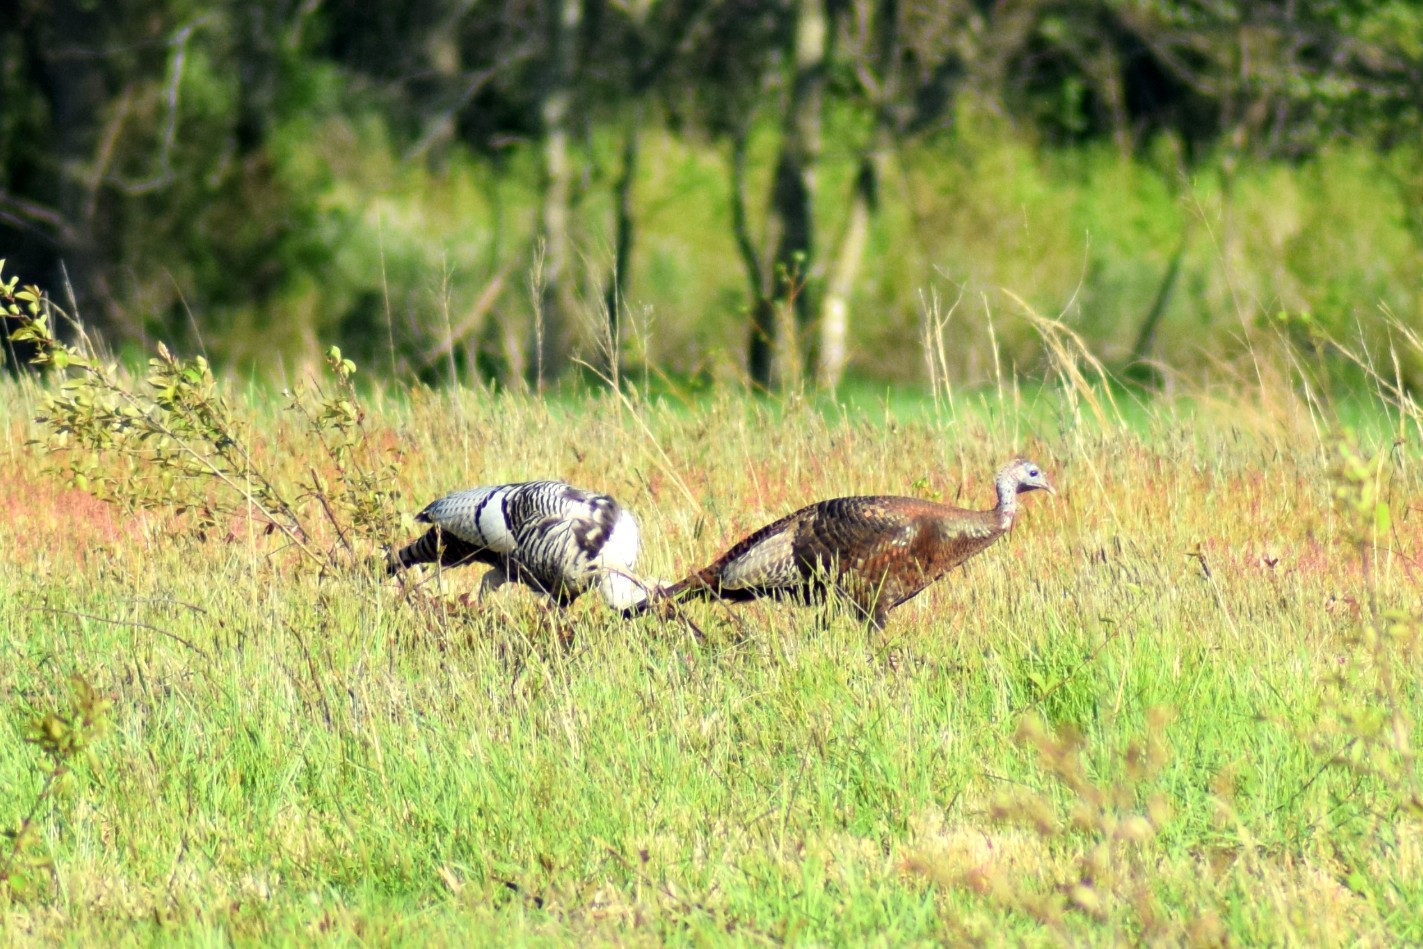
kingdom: Animalia
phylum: Chordata
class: Aves
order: Galliformes
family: Phasianidae
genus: Meleagris
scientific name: Meleagris gallopavo
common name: Wild turkey
